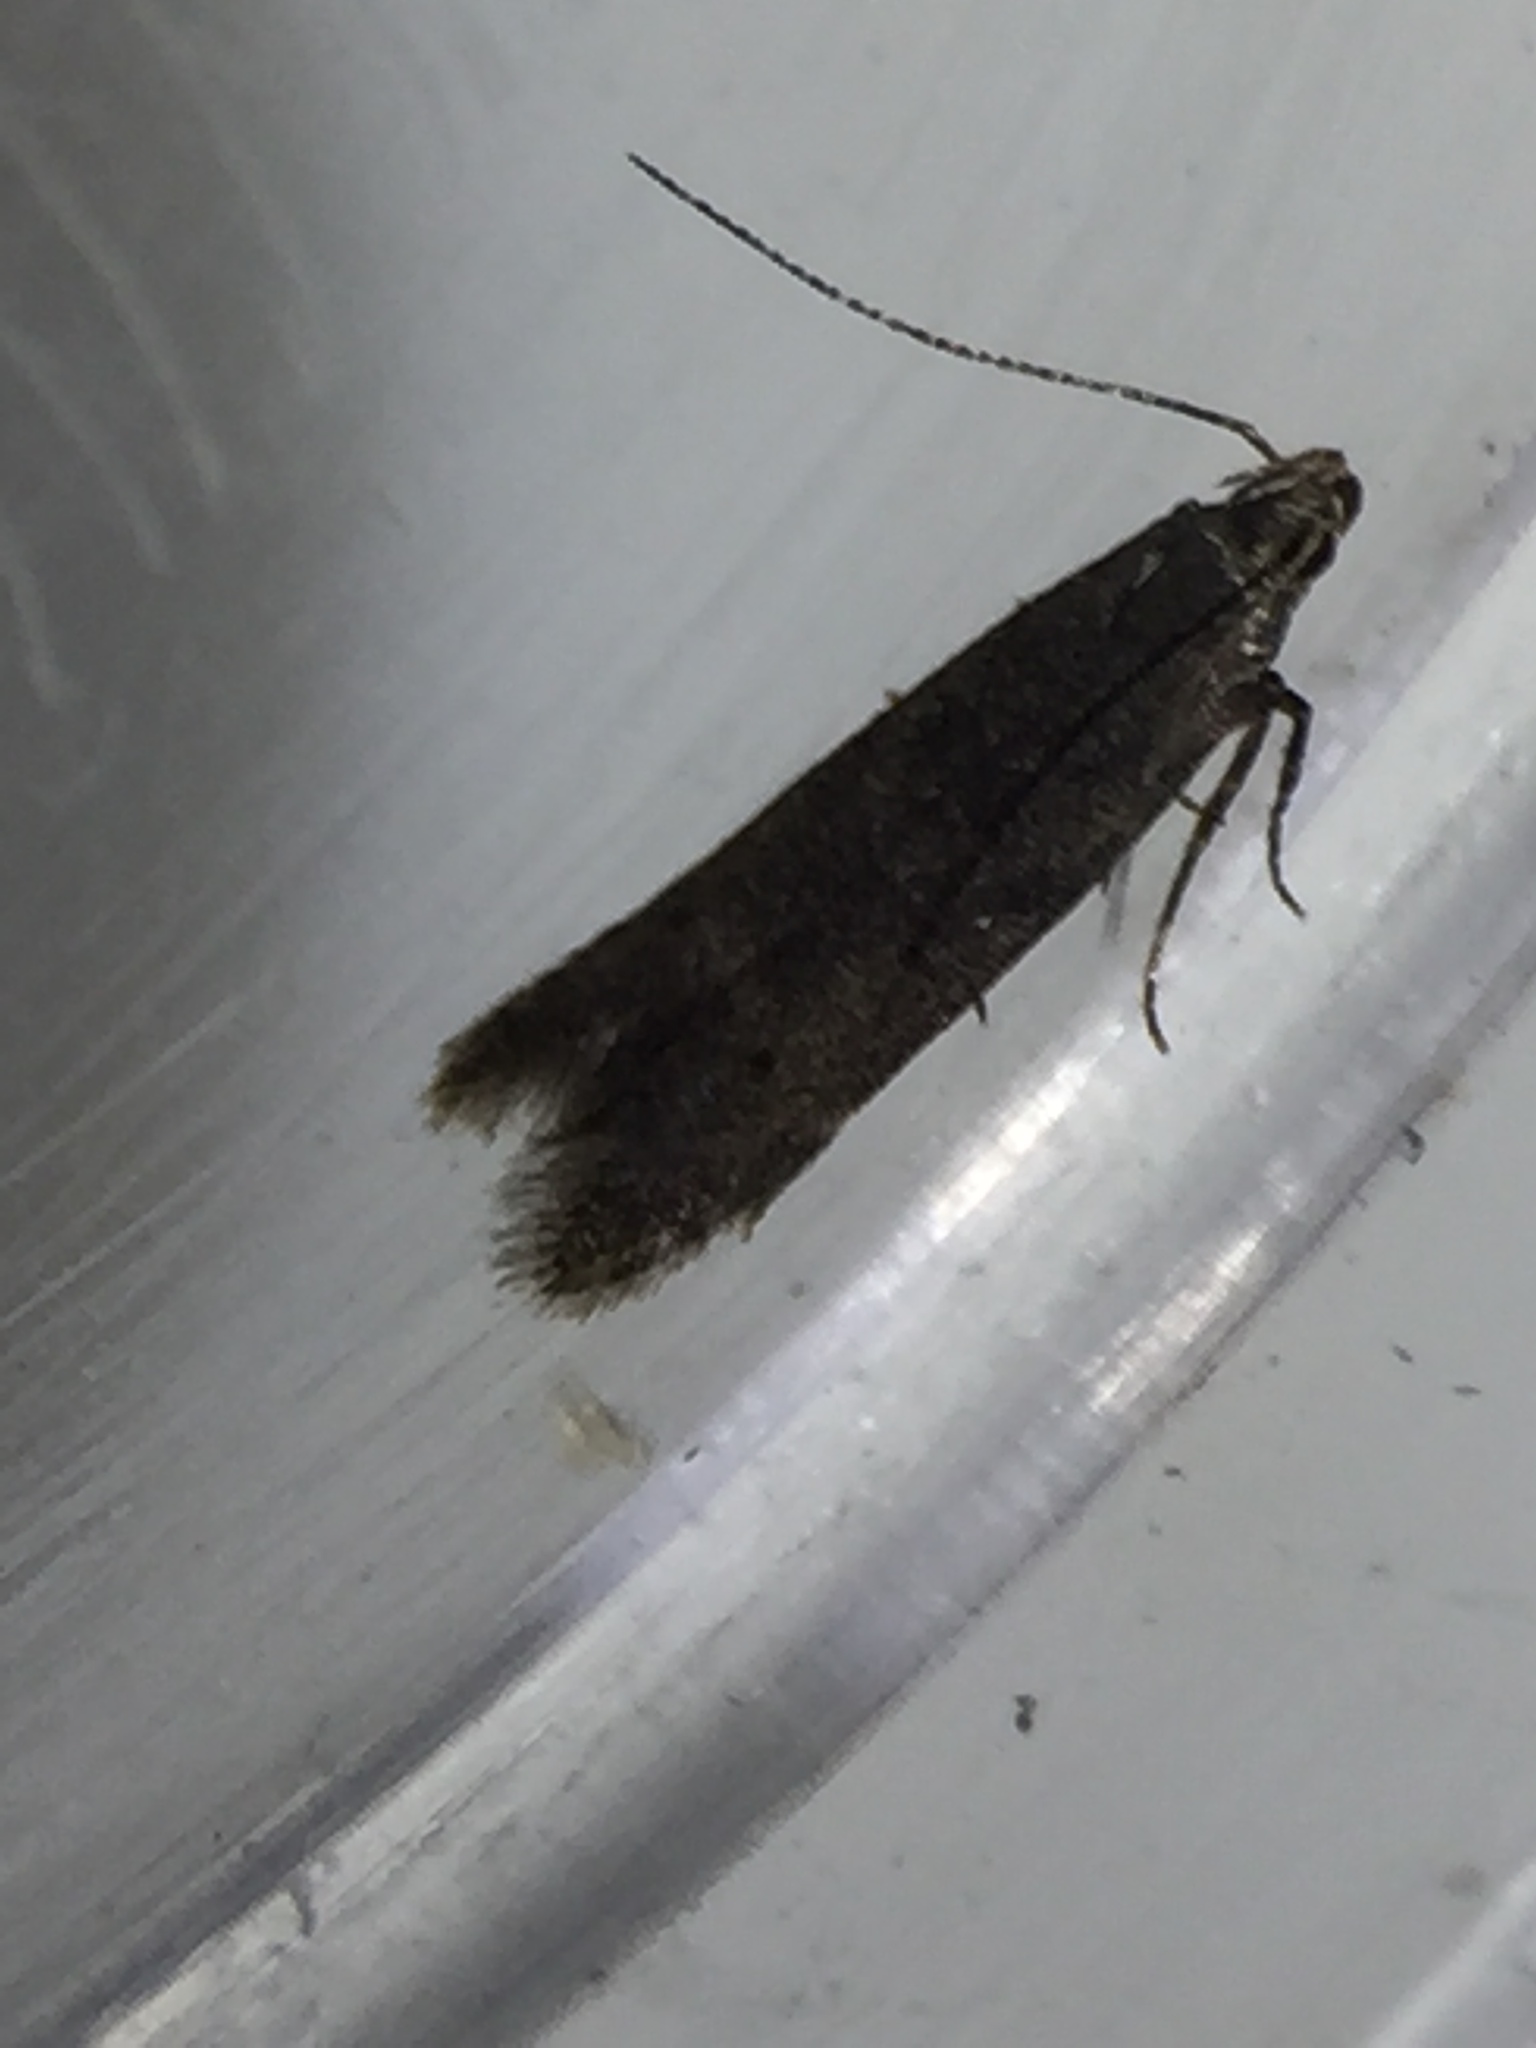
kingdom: Animalia
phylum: Arthropoda
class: Insecta
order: Lepidoptera
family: Gelechiidae
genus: Monochroa
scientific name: Monochroa
